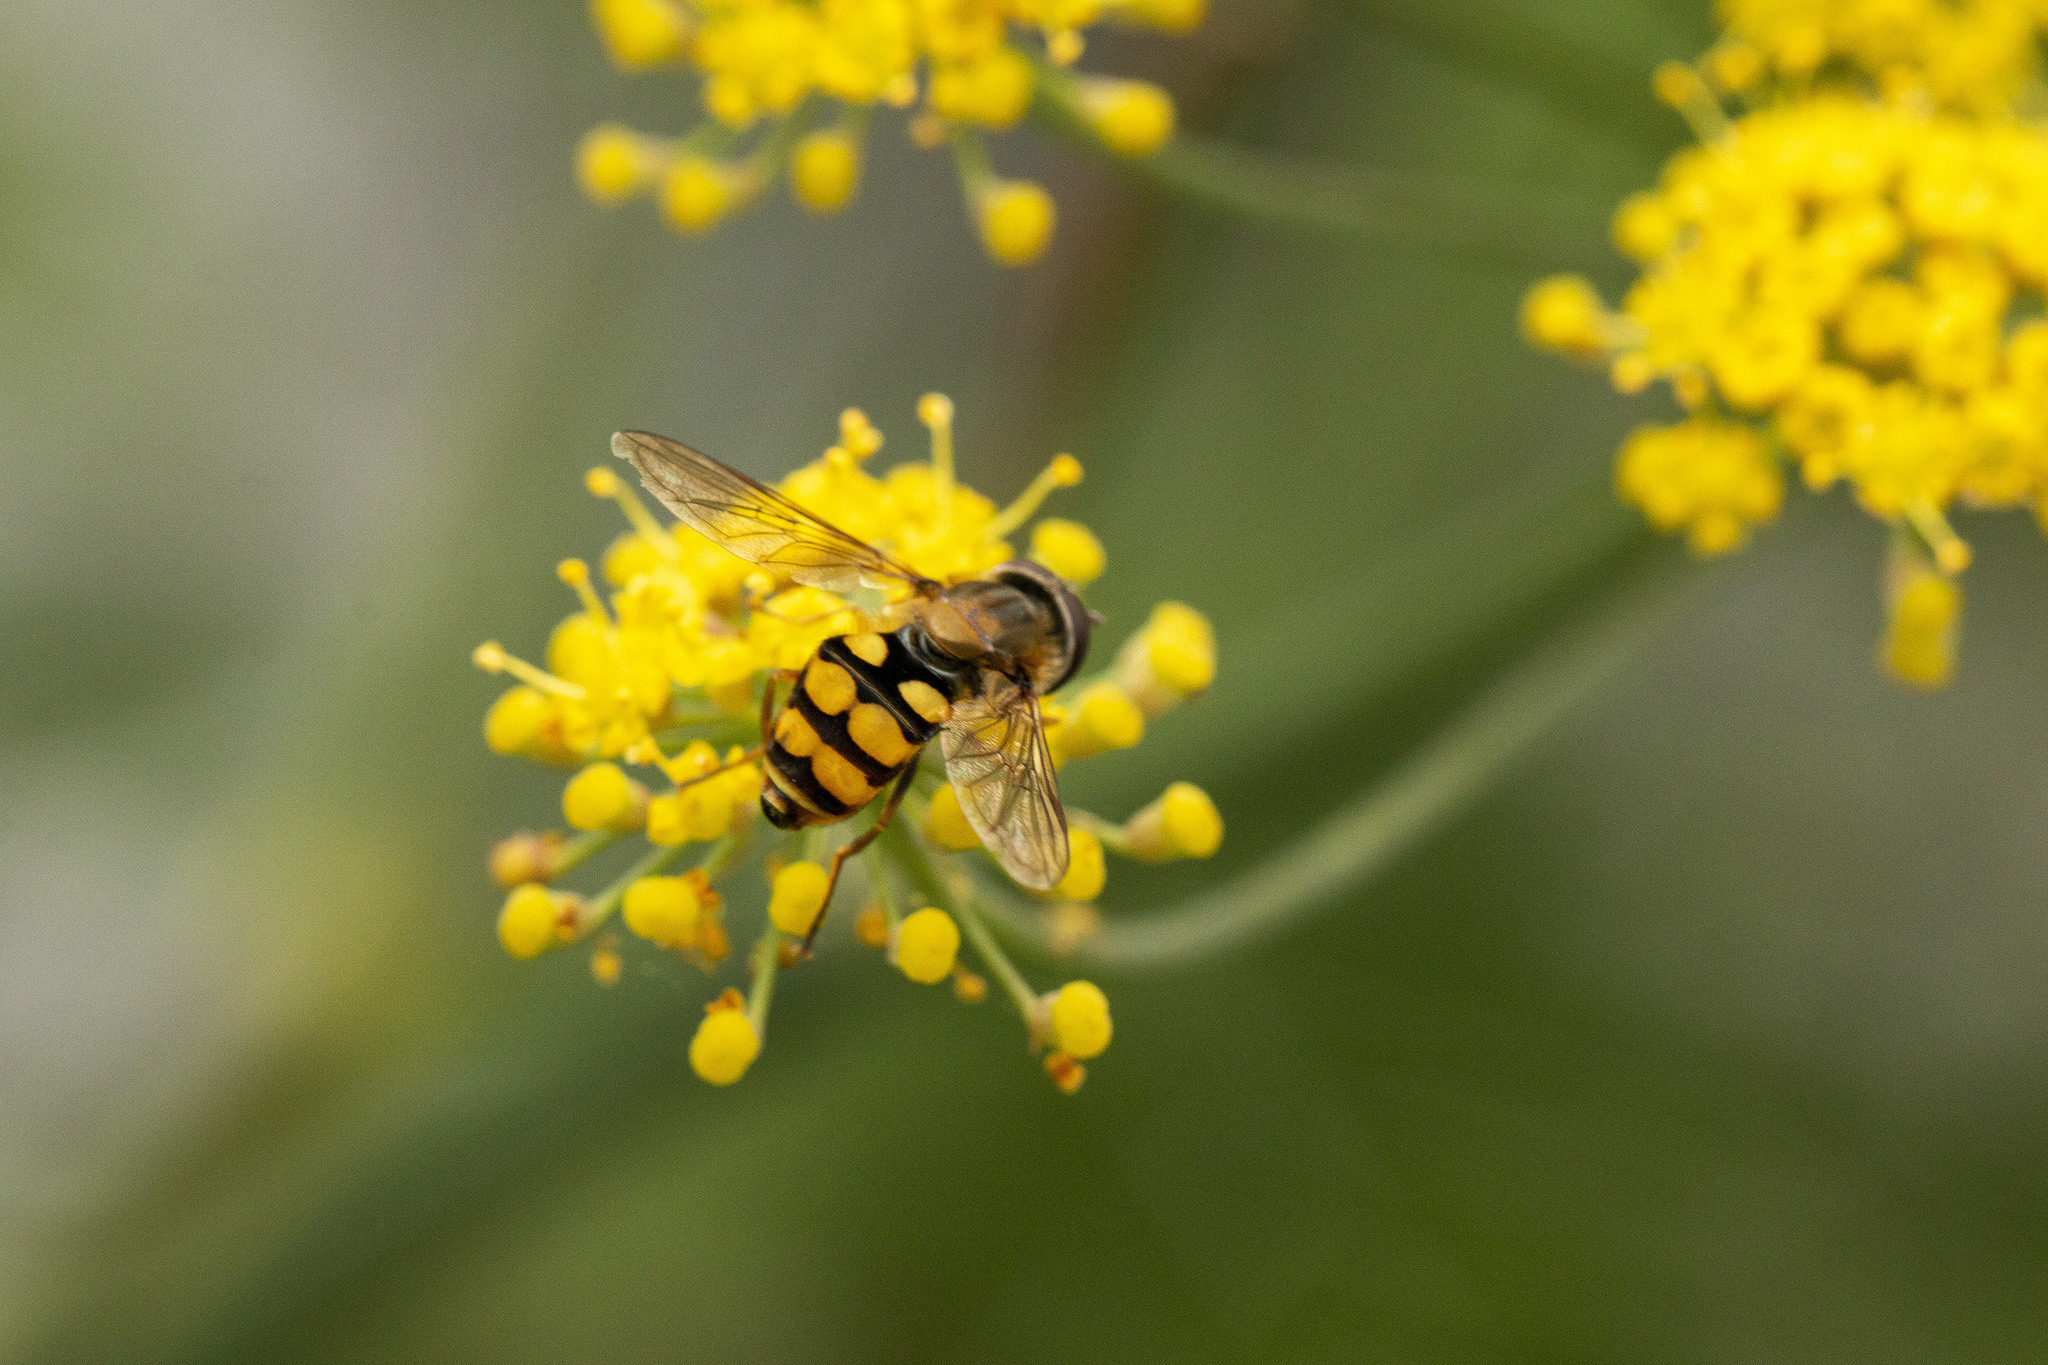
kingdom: Animalia
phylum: Arthropoda
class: Insecta
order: Diptera
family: Syrphidae
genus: Eupeodes
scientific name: Eupeodes corollae
